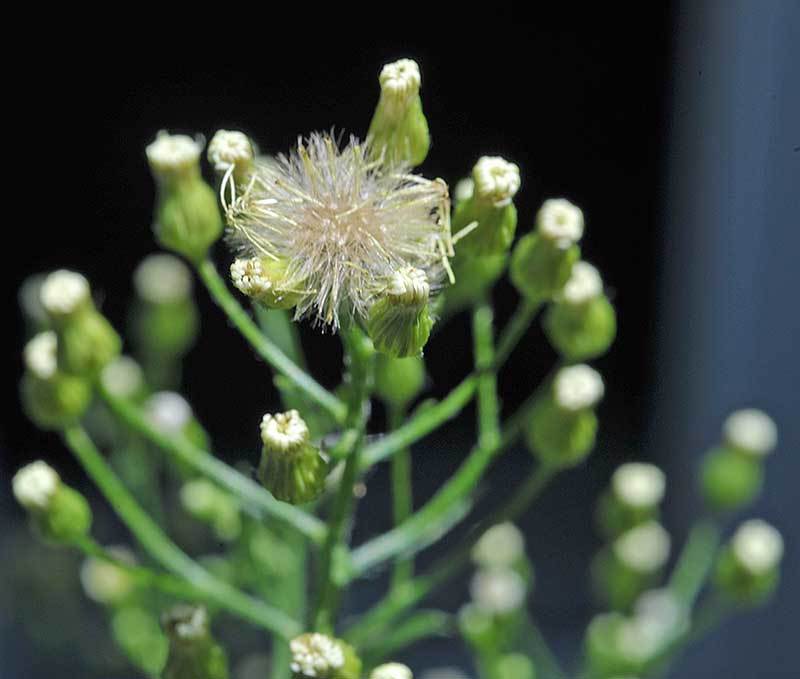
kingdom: Plantae
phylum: Tracheophyta
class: Magnoliopsida
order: Asterales
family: Asteraceae
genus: Erigeron
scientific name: Erigeron canadensis
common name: Canadian fleabane
